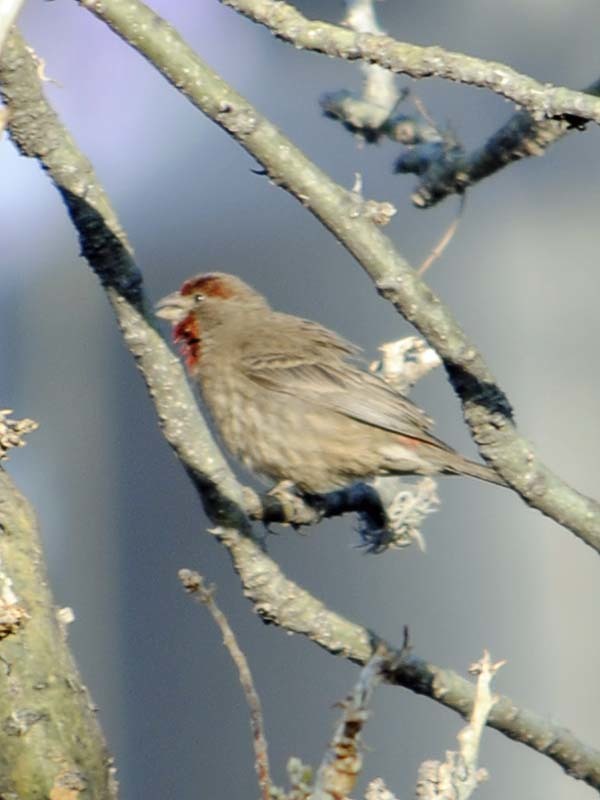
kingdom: Animalia
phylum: Chordata
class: Aves
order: Passeriformes
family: Fringillidae
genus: Haemorhous
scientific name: Haemorhous mexicanus
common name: House finch
